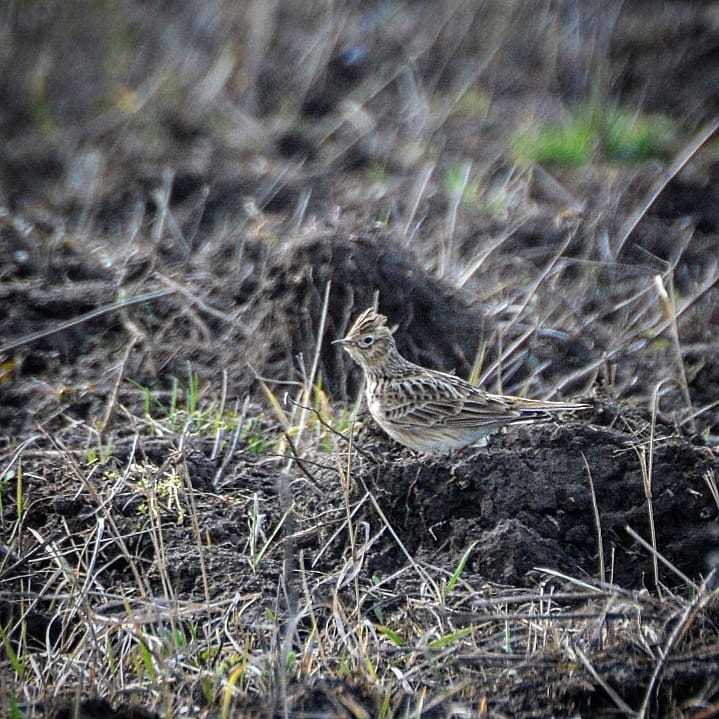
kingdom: Animalia
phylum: Chordata
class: Aves
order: Passeriformes
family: Alaudidae
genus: Alauda
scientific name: Alauda arvensis
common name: Eurasian skylark
